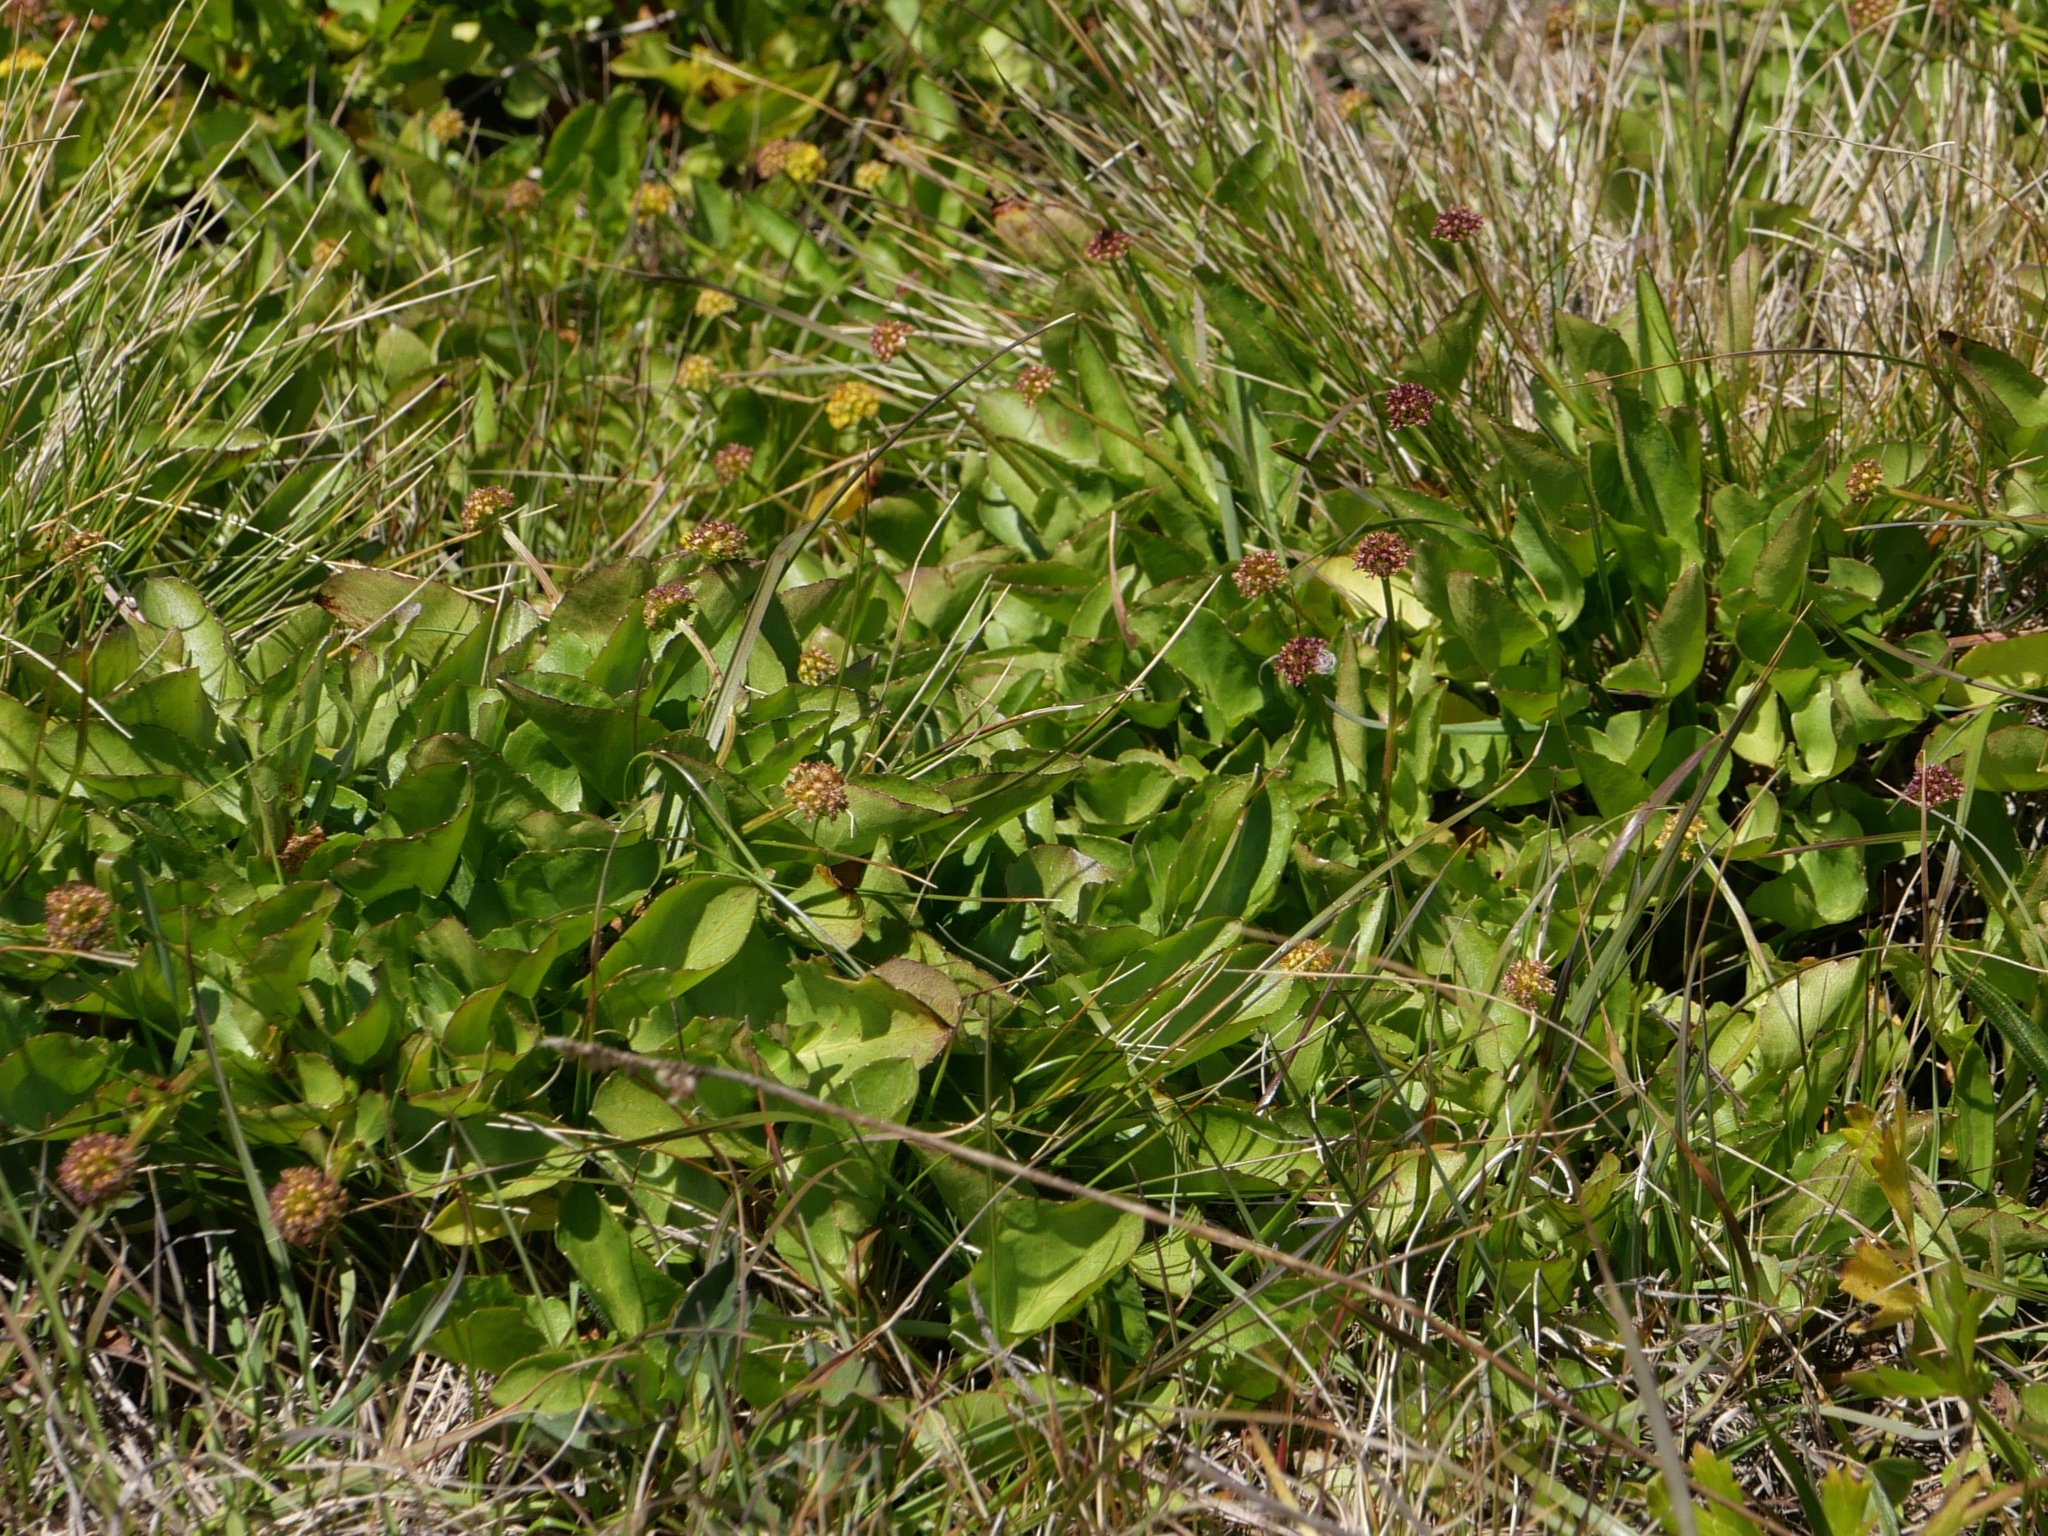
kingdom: Plantae
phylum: Tracheophyta
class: Magnoliopsida
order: Apiales
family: Apiaceae
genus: Sanicula
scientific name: Sanicula maritima
